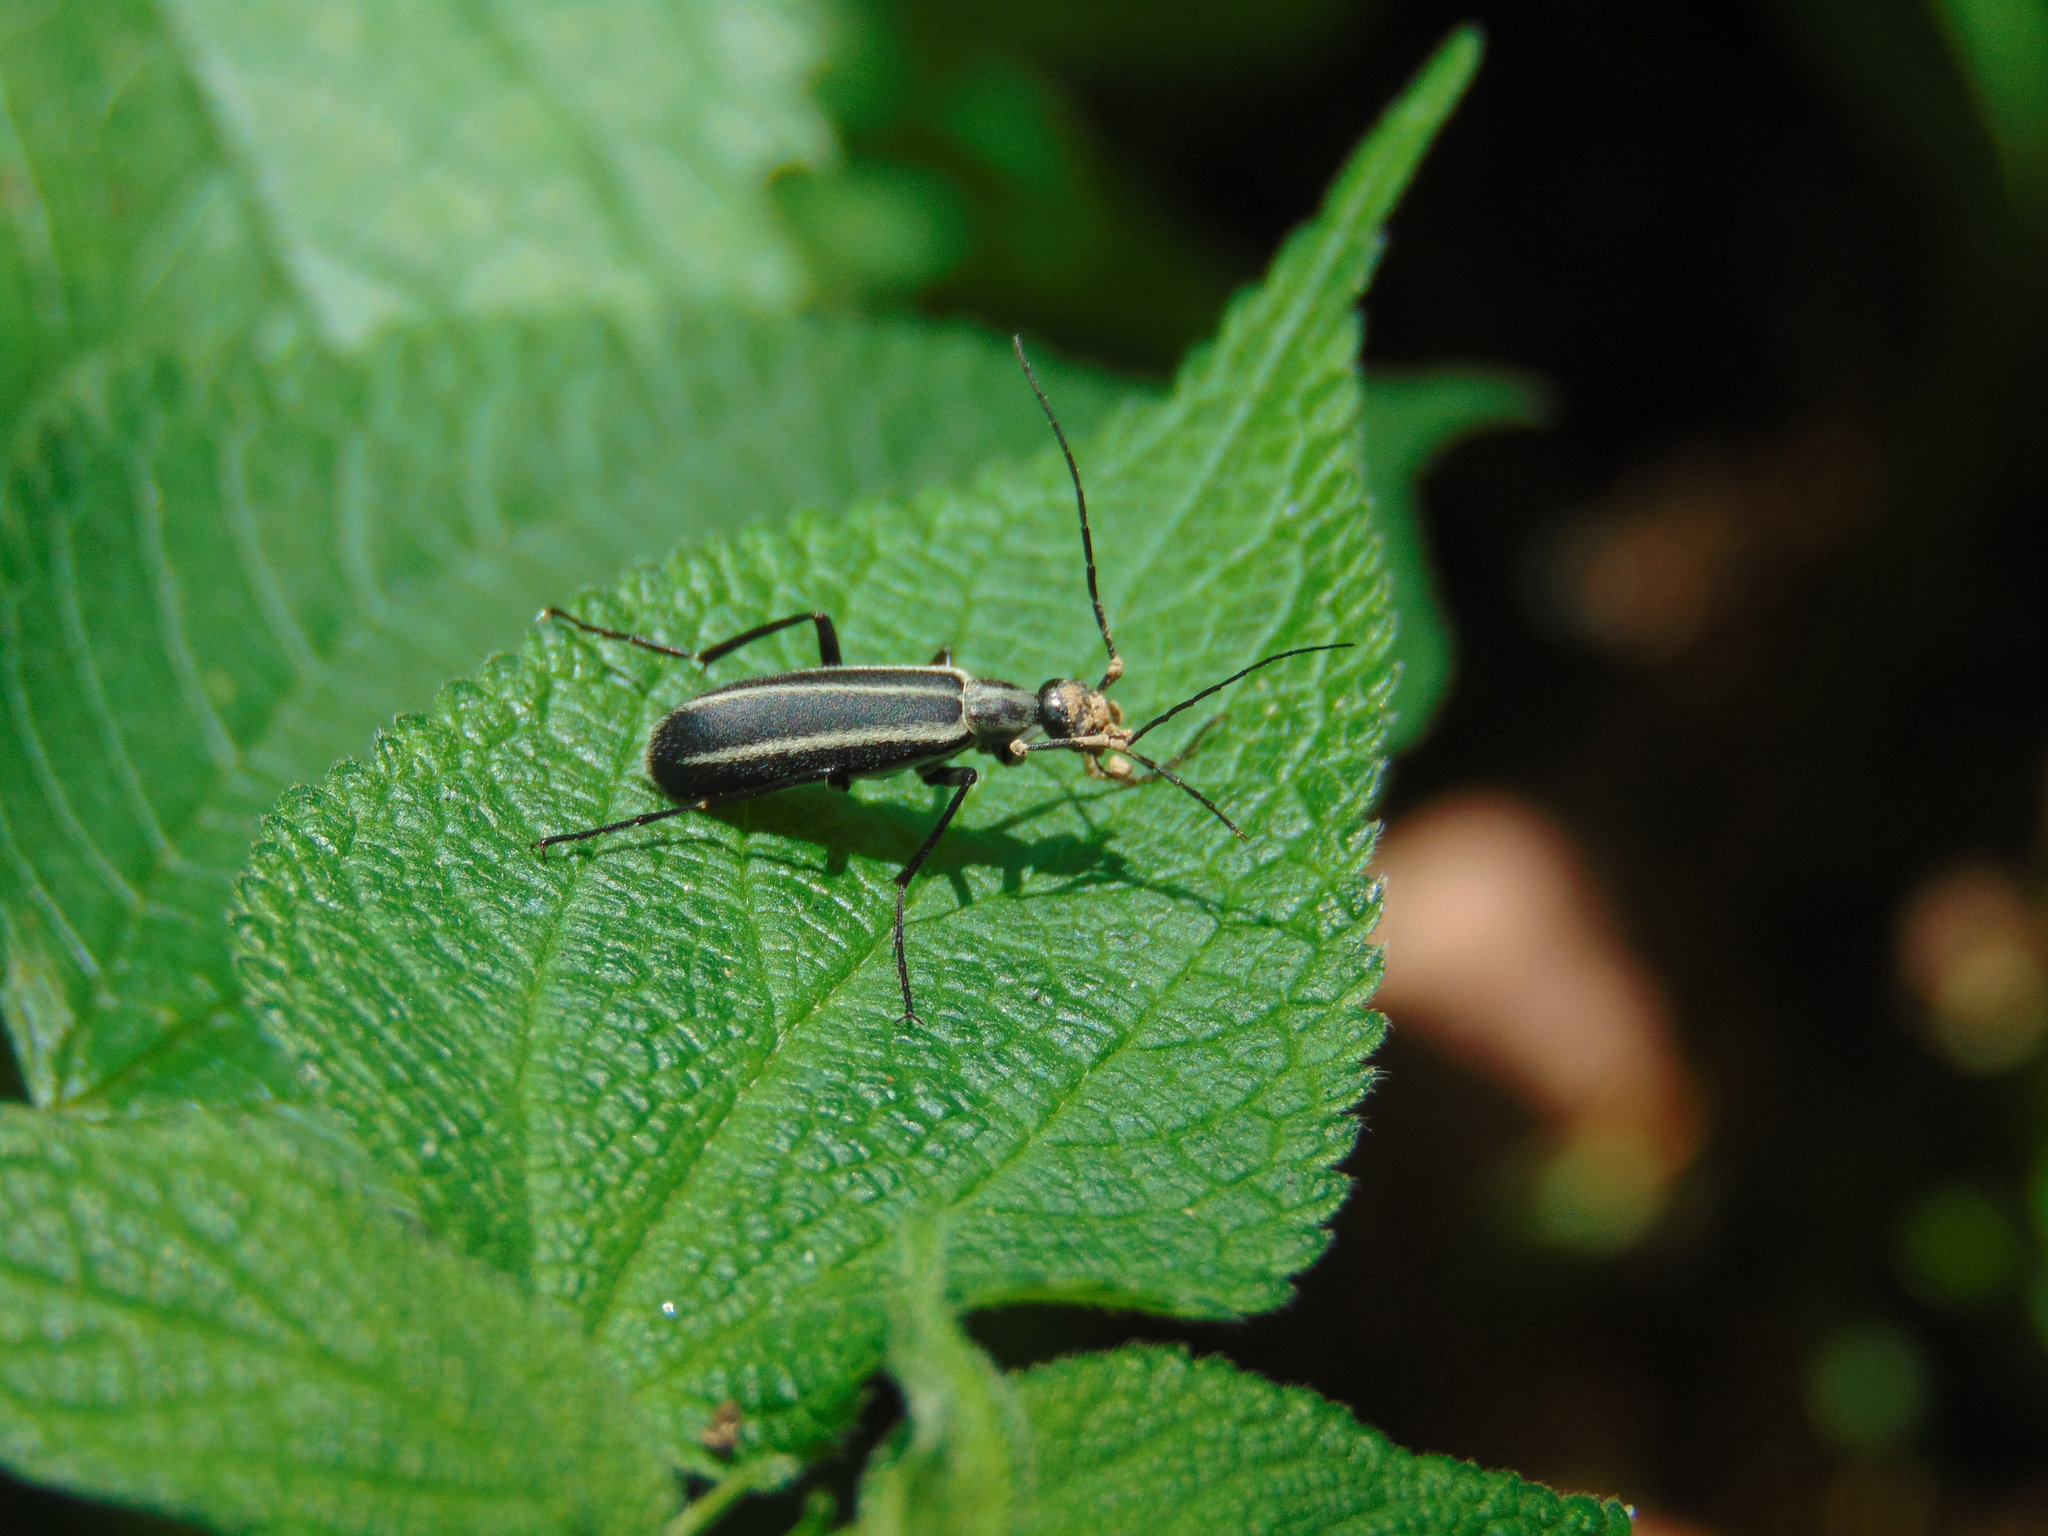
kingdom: Animalia
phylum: Arthropoda
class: Insecta
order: Coleoptera
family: Meloidae
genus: Epicauta
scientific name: Epicauta
